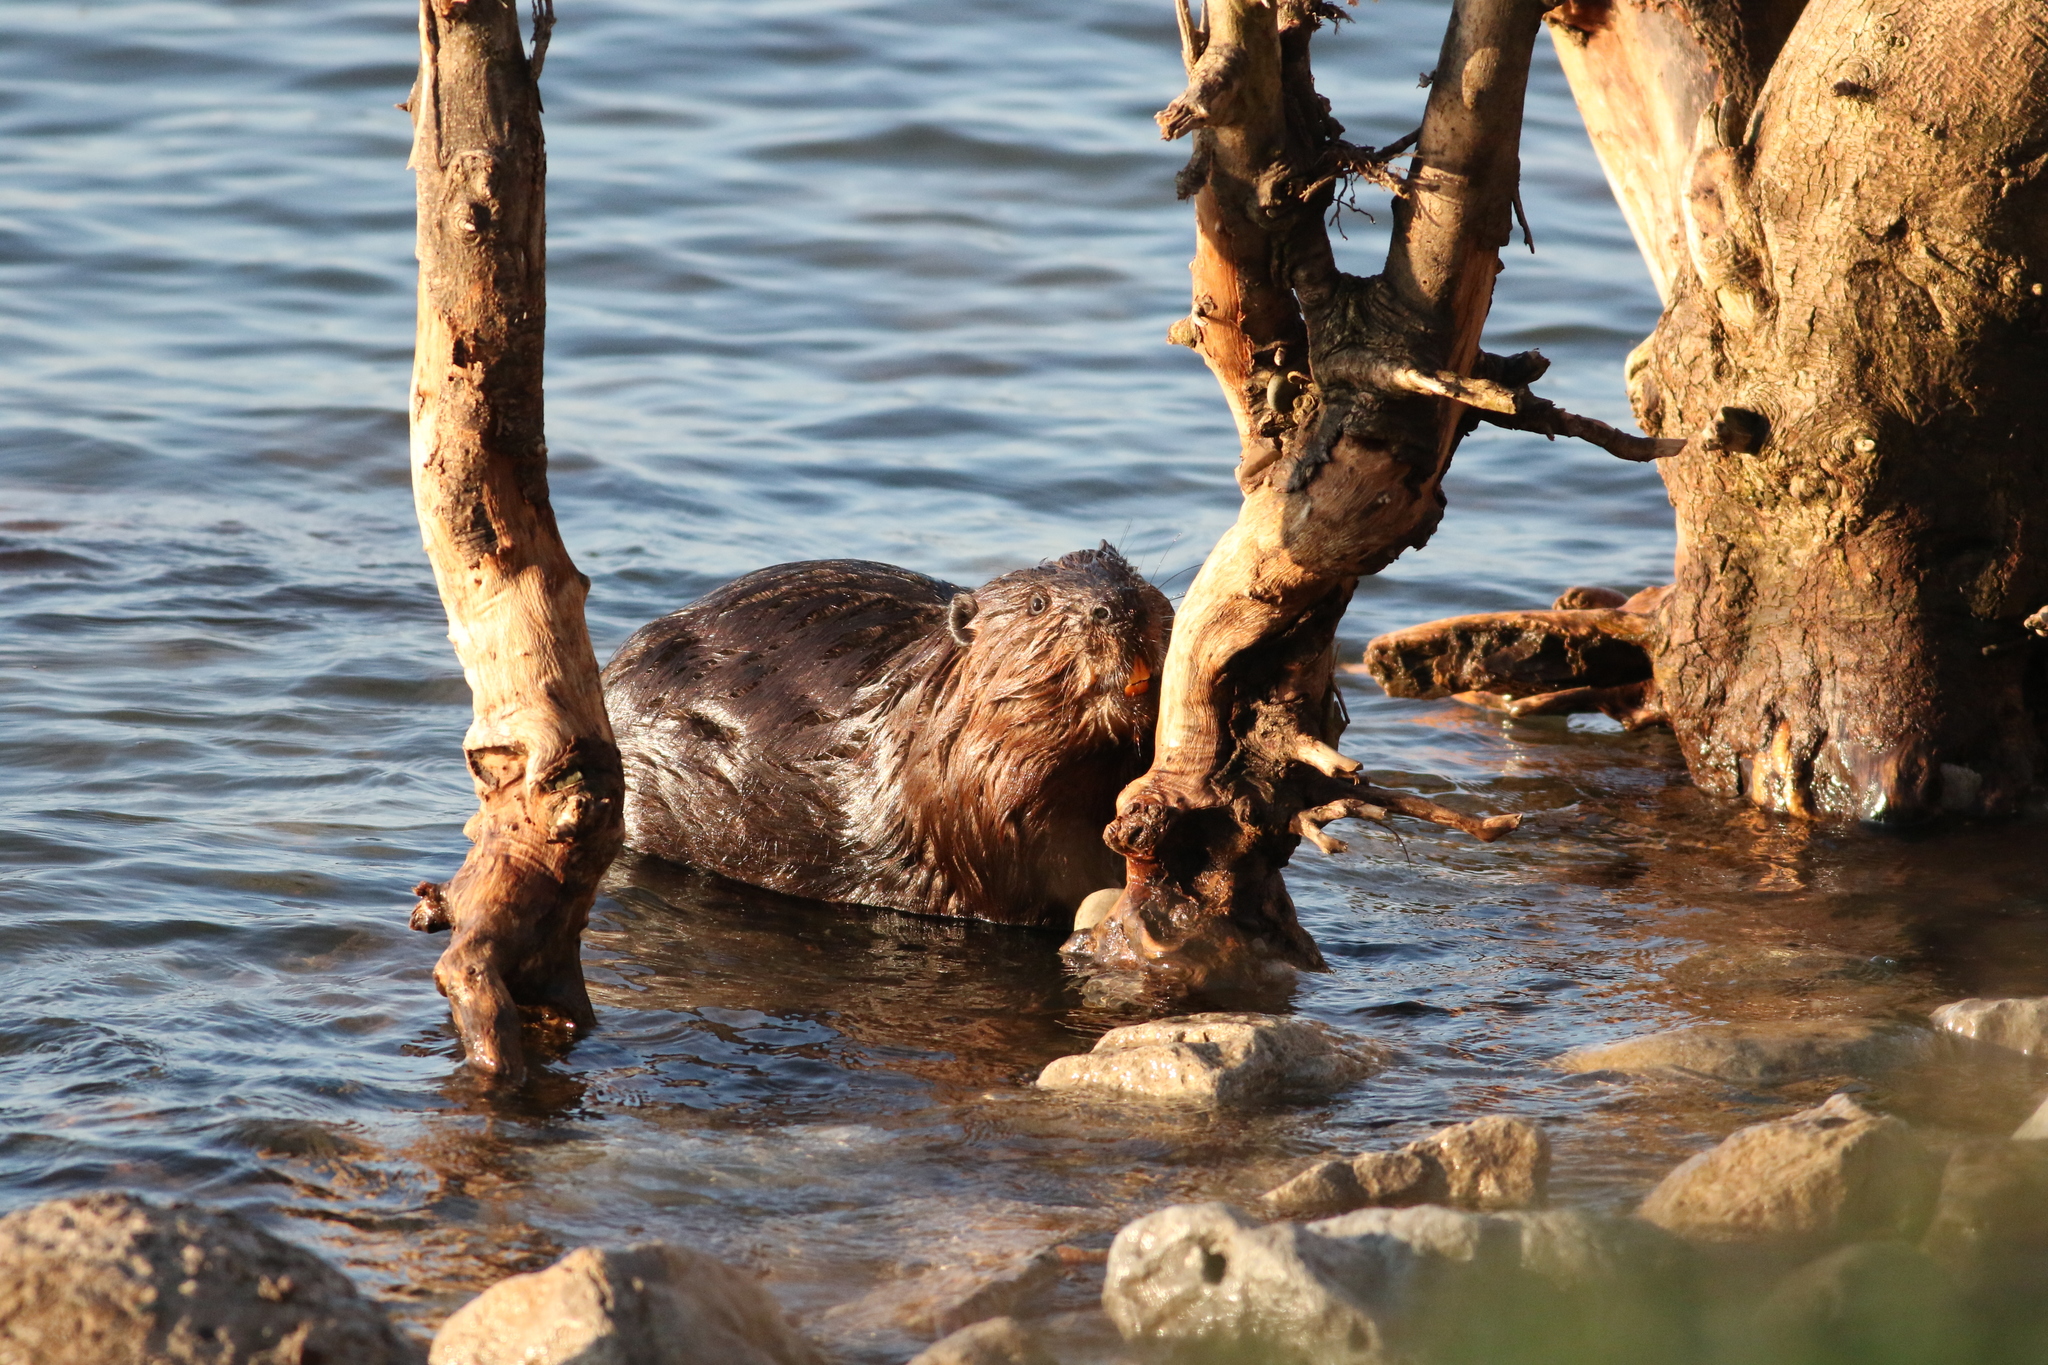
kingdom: Animalia
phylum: Chordata
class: Mammalia
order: Rodentia
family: Castoridae
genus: Castor
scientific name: Castor canadensis
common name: American beaver
